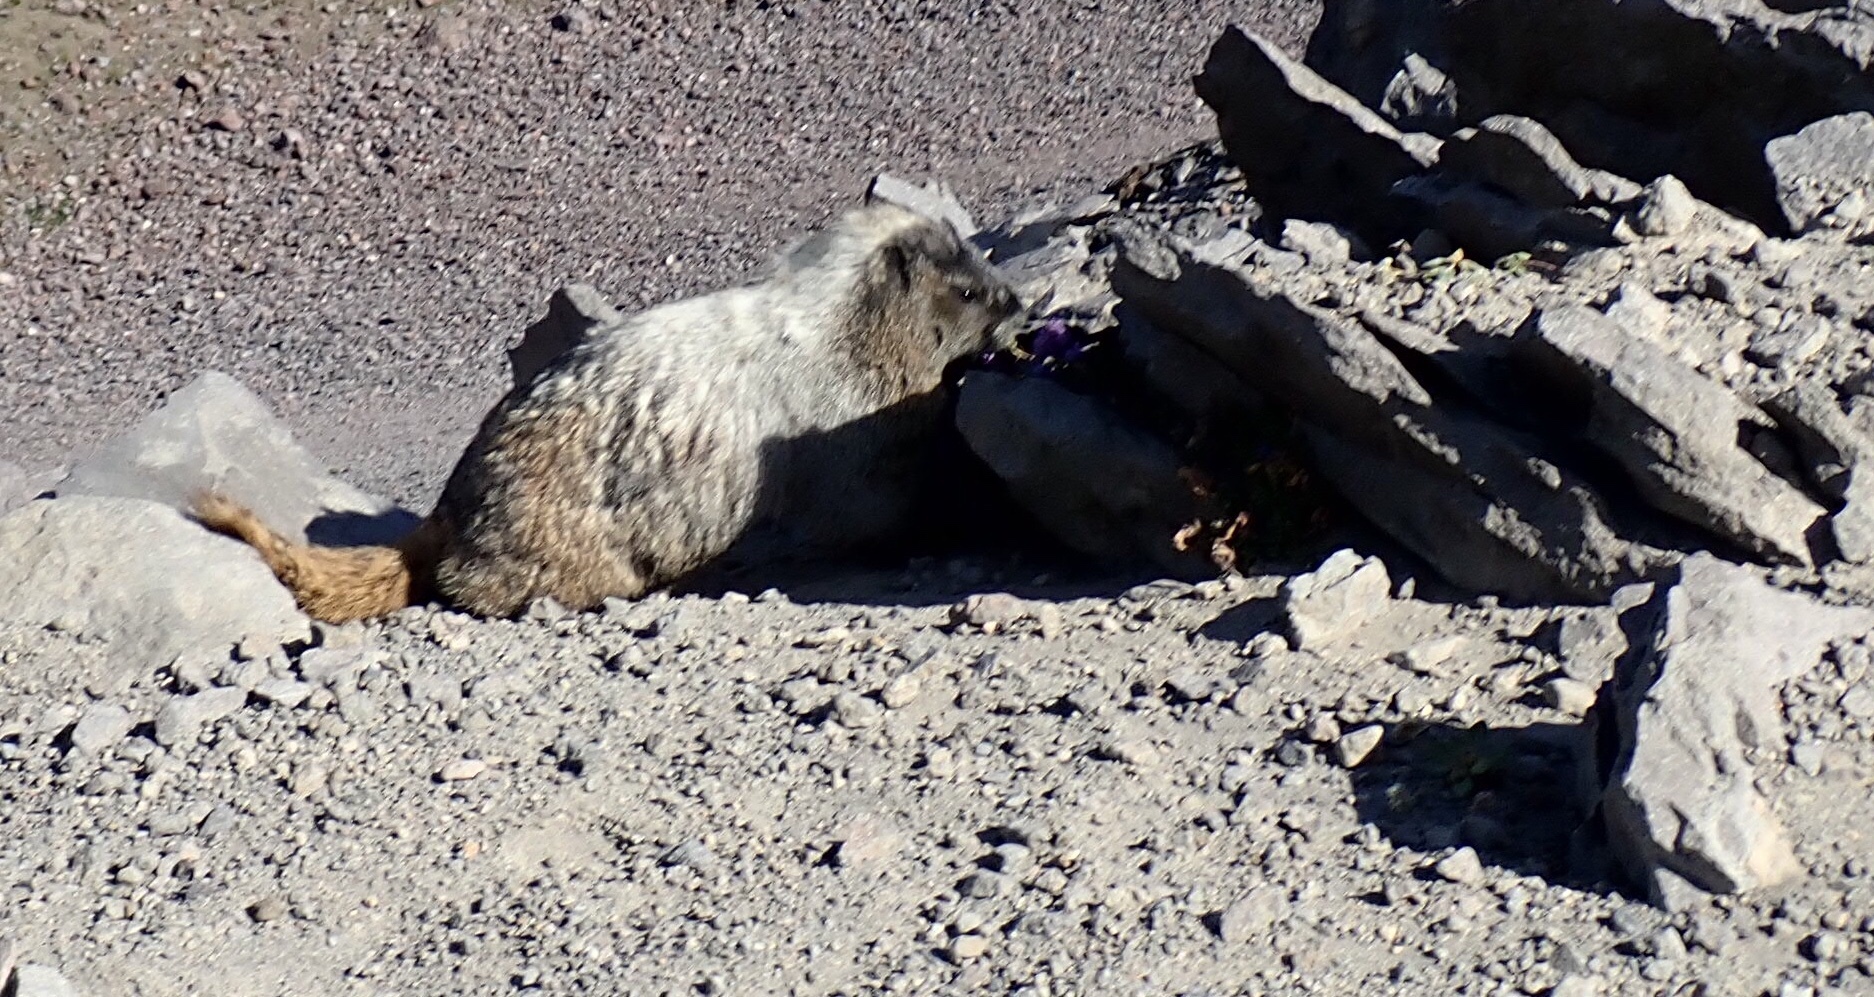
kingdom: Animalia
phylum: Chordata
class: Mammalia
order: Rodentia
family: Sciuridae
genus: Marmota
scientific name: Marmota caligata
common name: Hoary marmot
